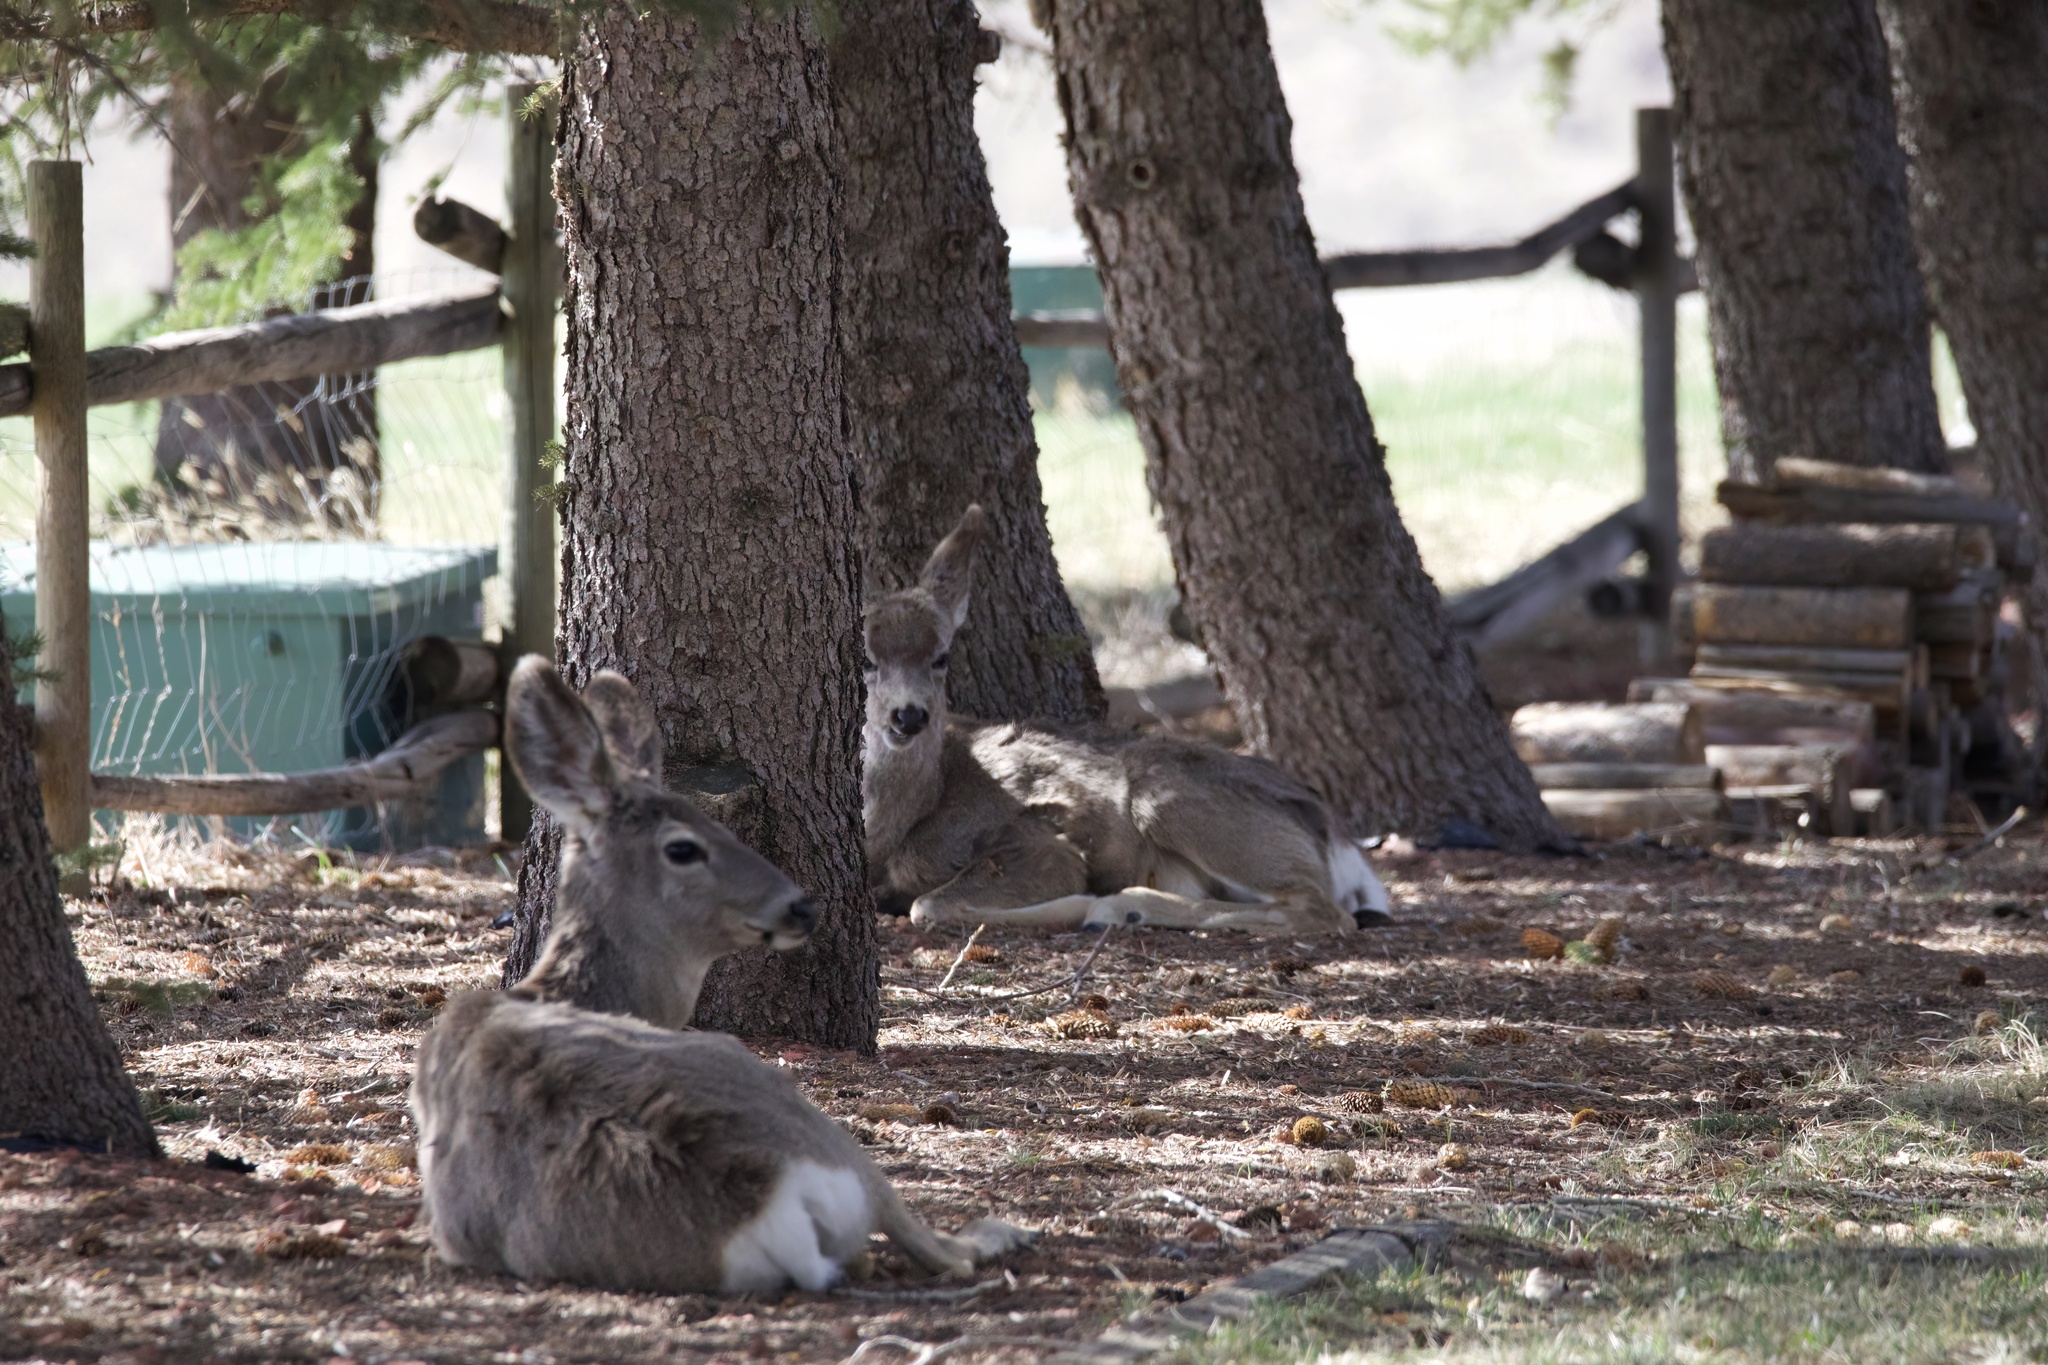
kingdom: Animalia
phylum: Chordata
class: Mammalia
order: Artiodactyla
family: Cervidae
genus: Odocoileus
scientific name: Odocoileus hemionus
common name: Mule deer
